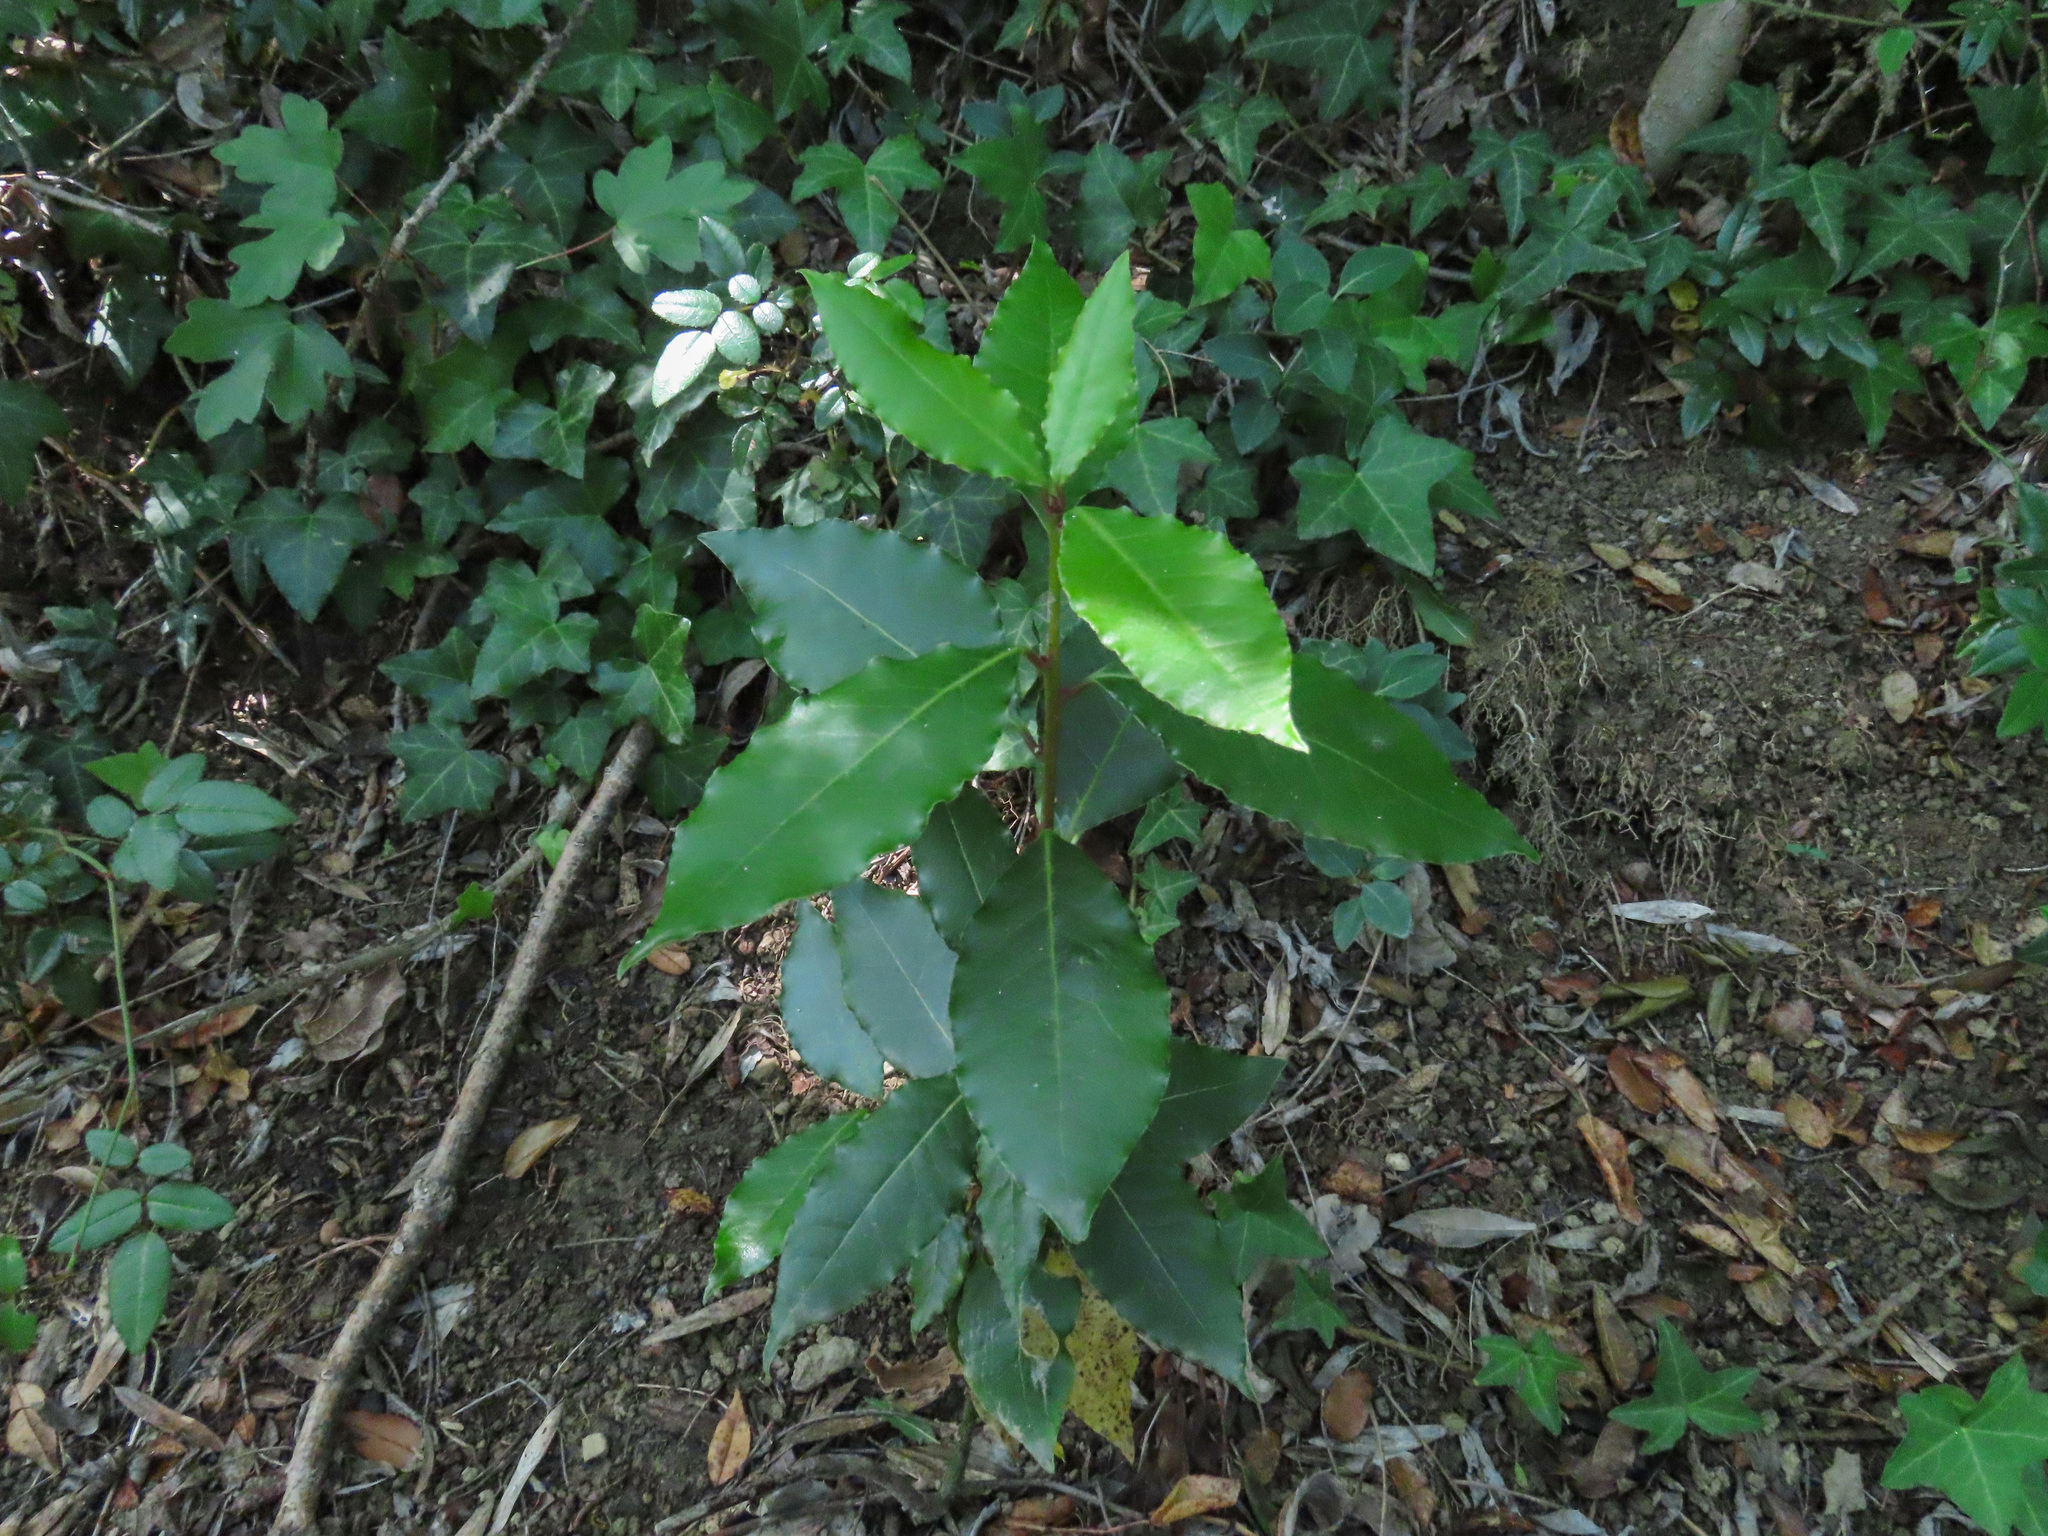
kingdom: Plantae
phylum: Tracheophyta
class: Magnoliopsida
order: Laurales
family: Lauraceae
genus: Laurus
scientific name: Laurus nobilis
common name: Bay
